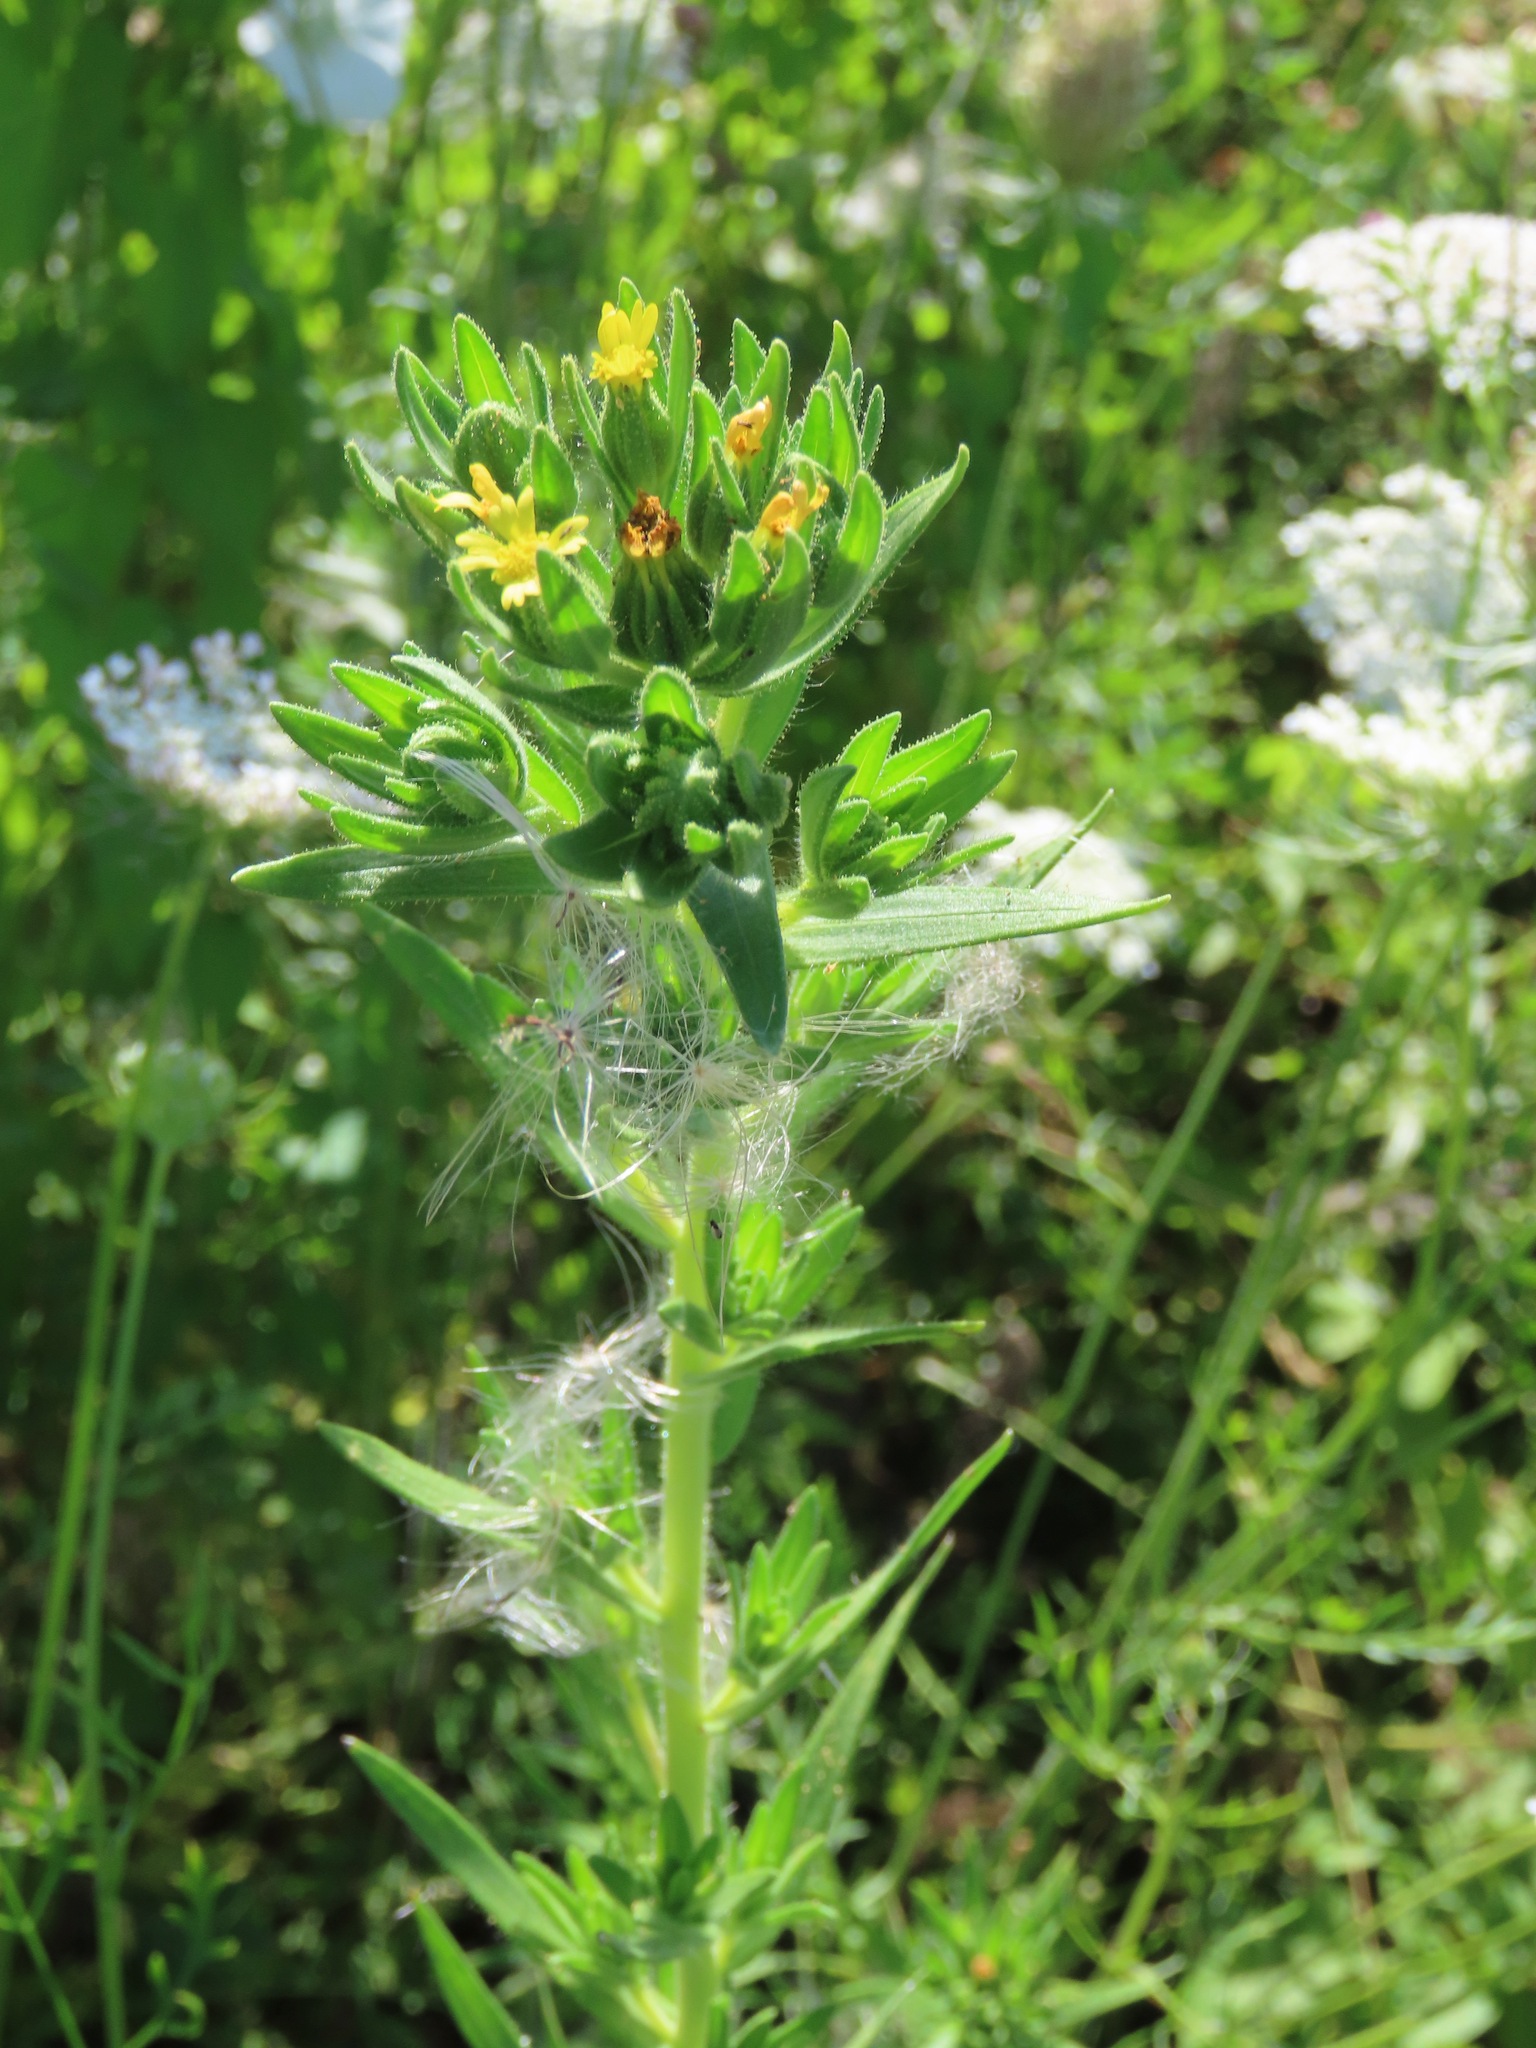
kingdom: Plantae
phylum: Tracheophyta
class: Magnoliopsida
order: Asterales
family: Asteraceae
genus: Madia
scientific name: Madia glomerata
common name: Mountain tarweed
